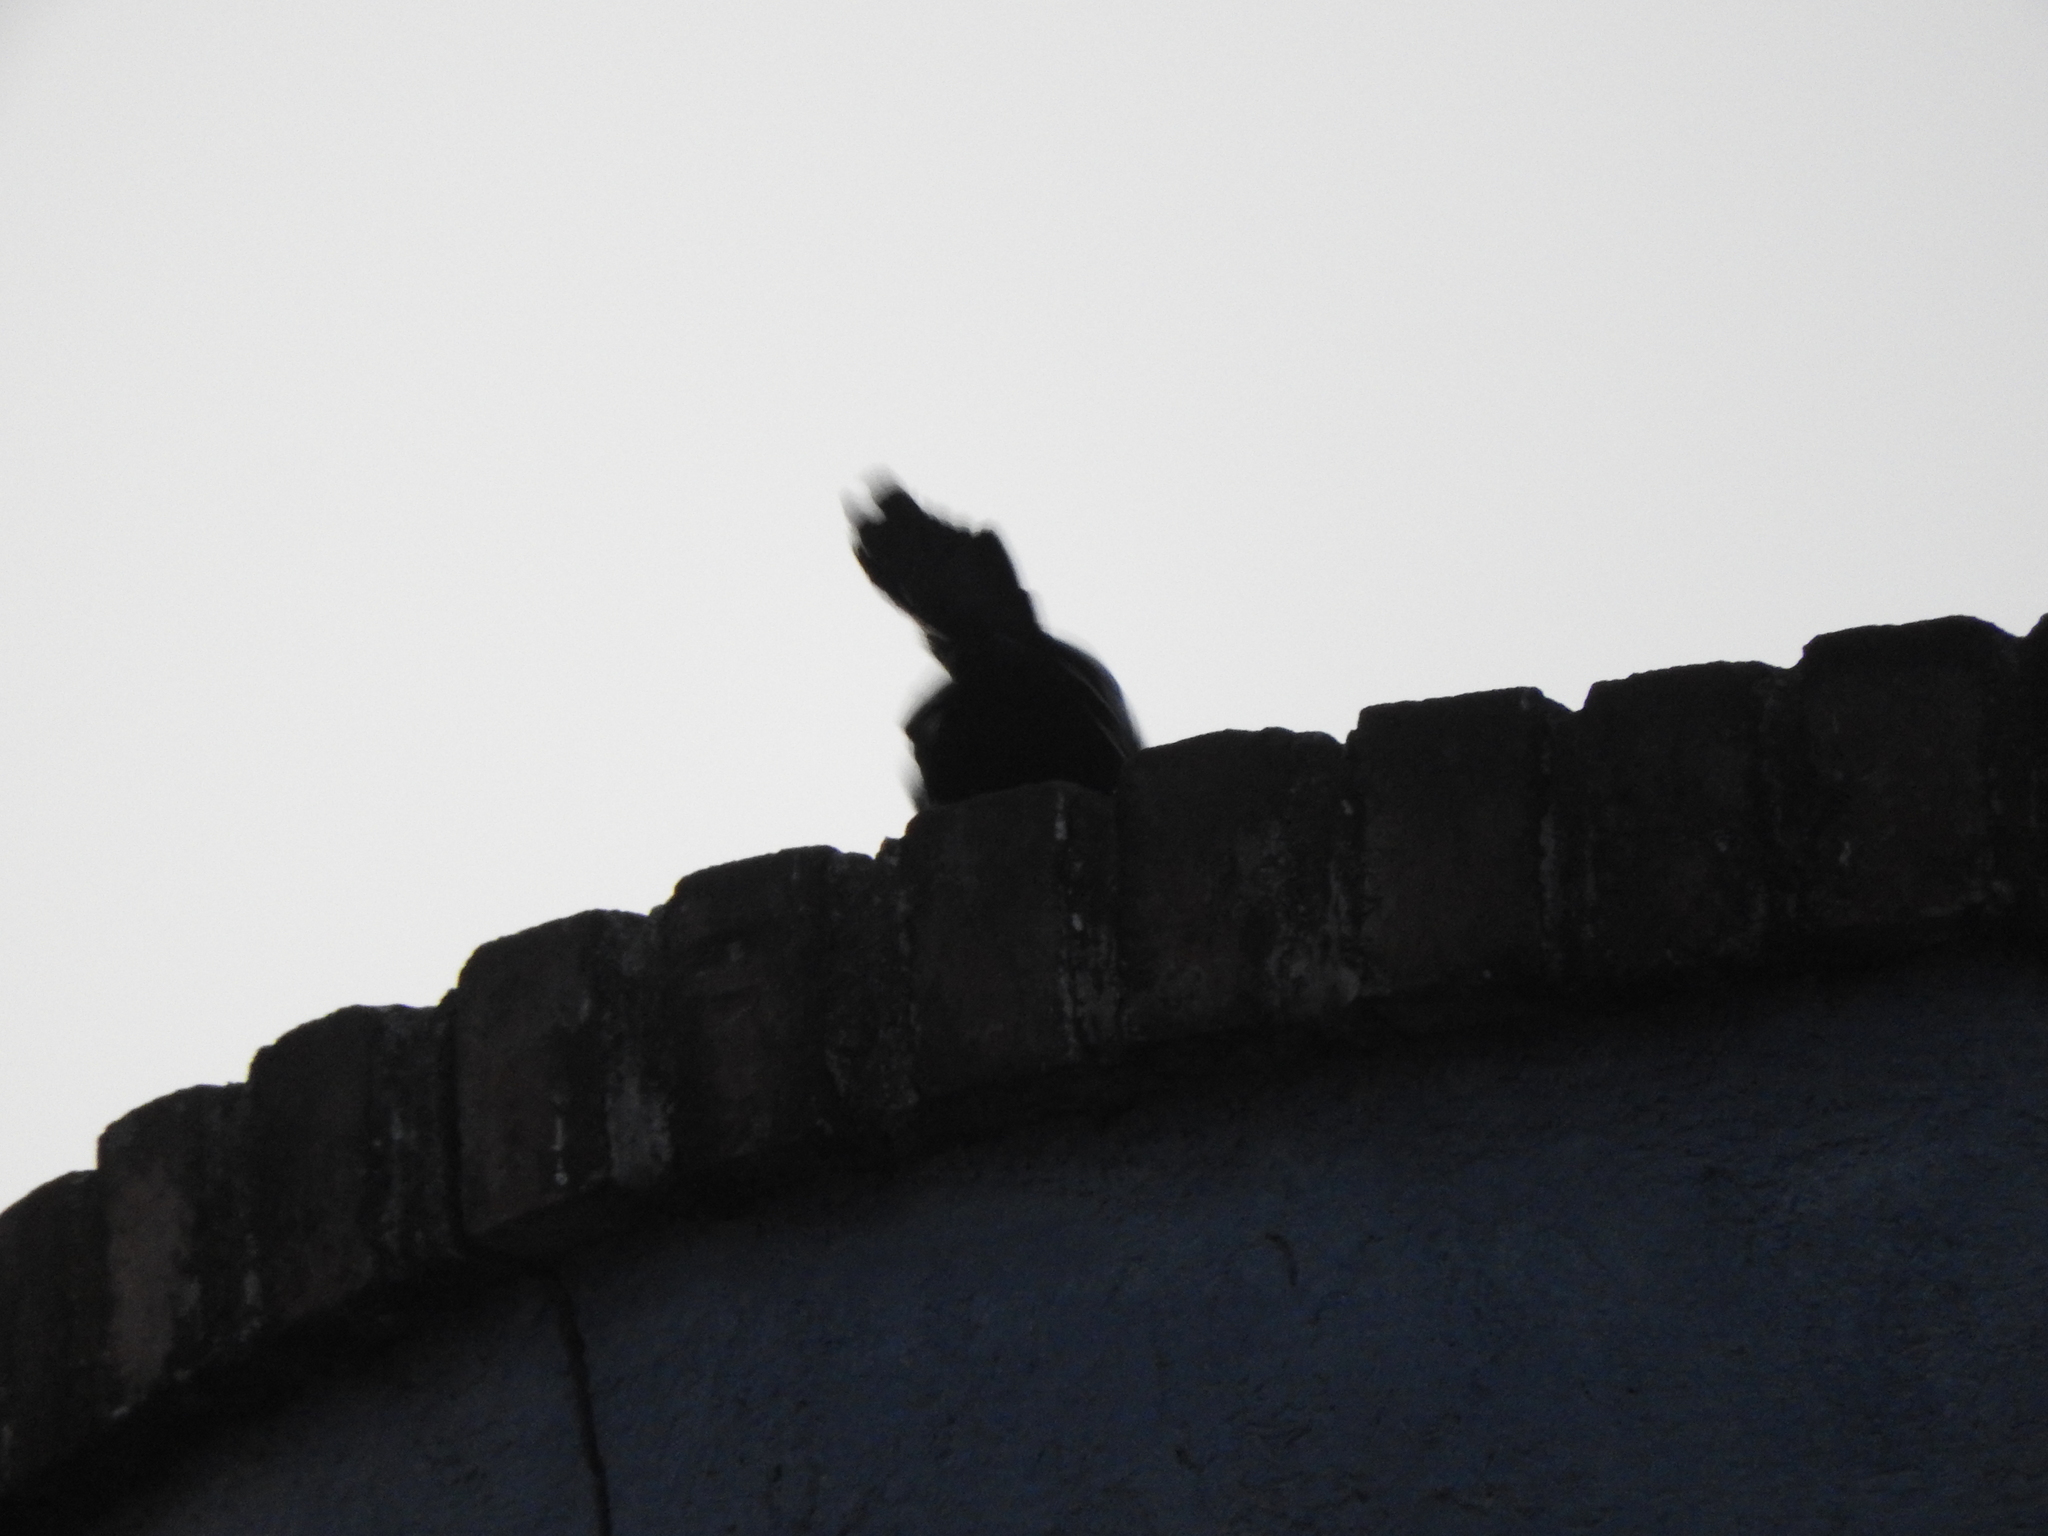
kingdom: Animalia
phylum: Chordata
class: Aves
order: Passeriformes
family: Icteridae
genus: Quiscalus
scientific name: Quiscalus mexicanus
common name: Great-tailed grackle
